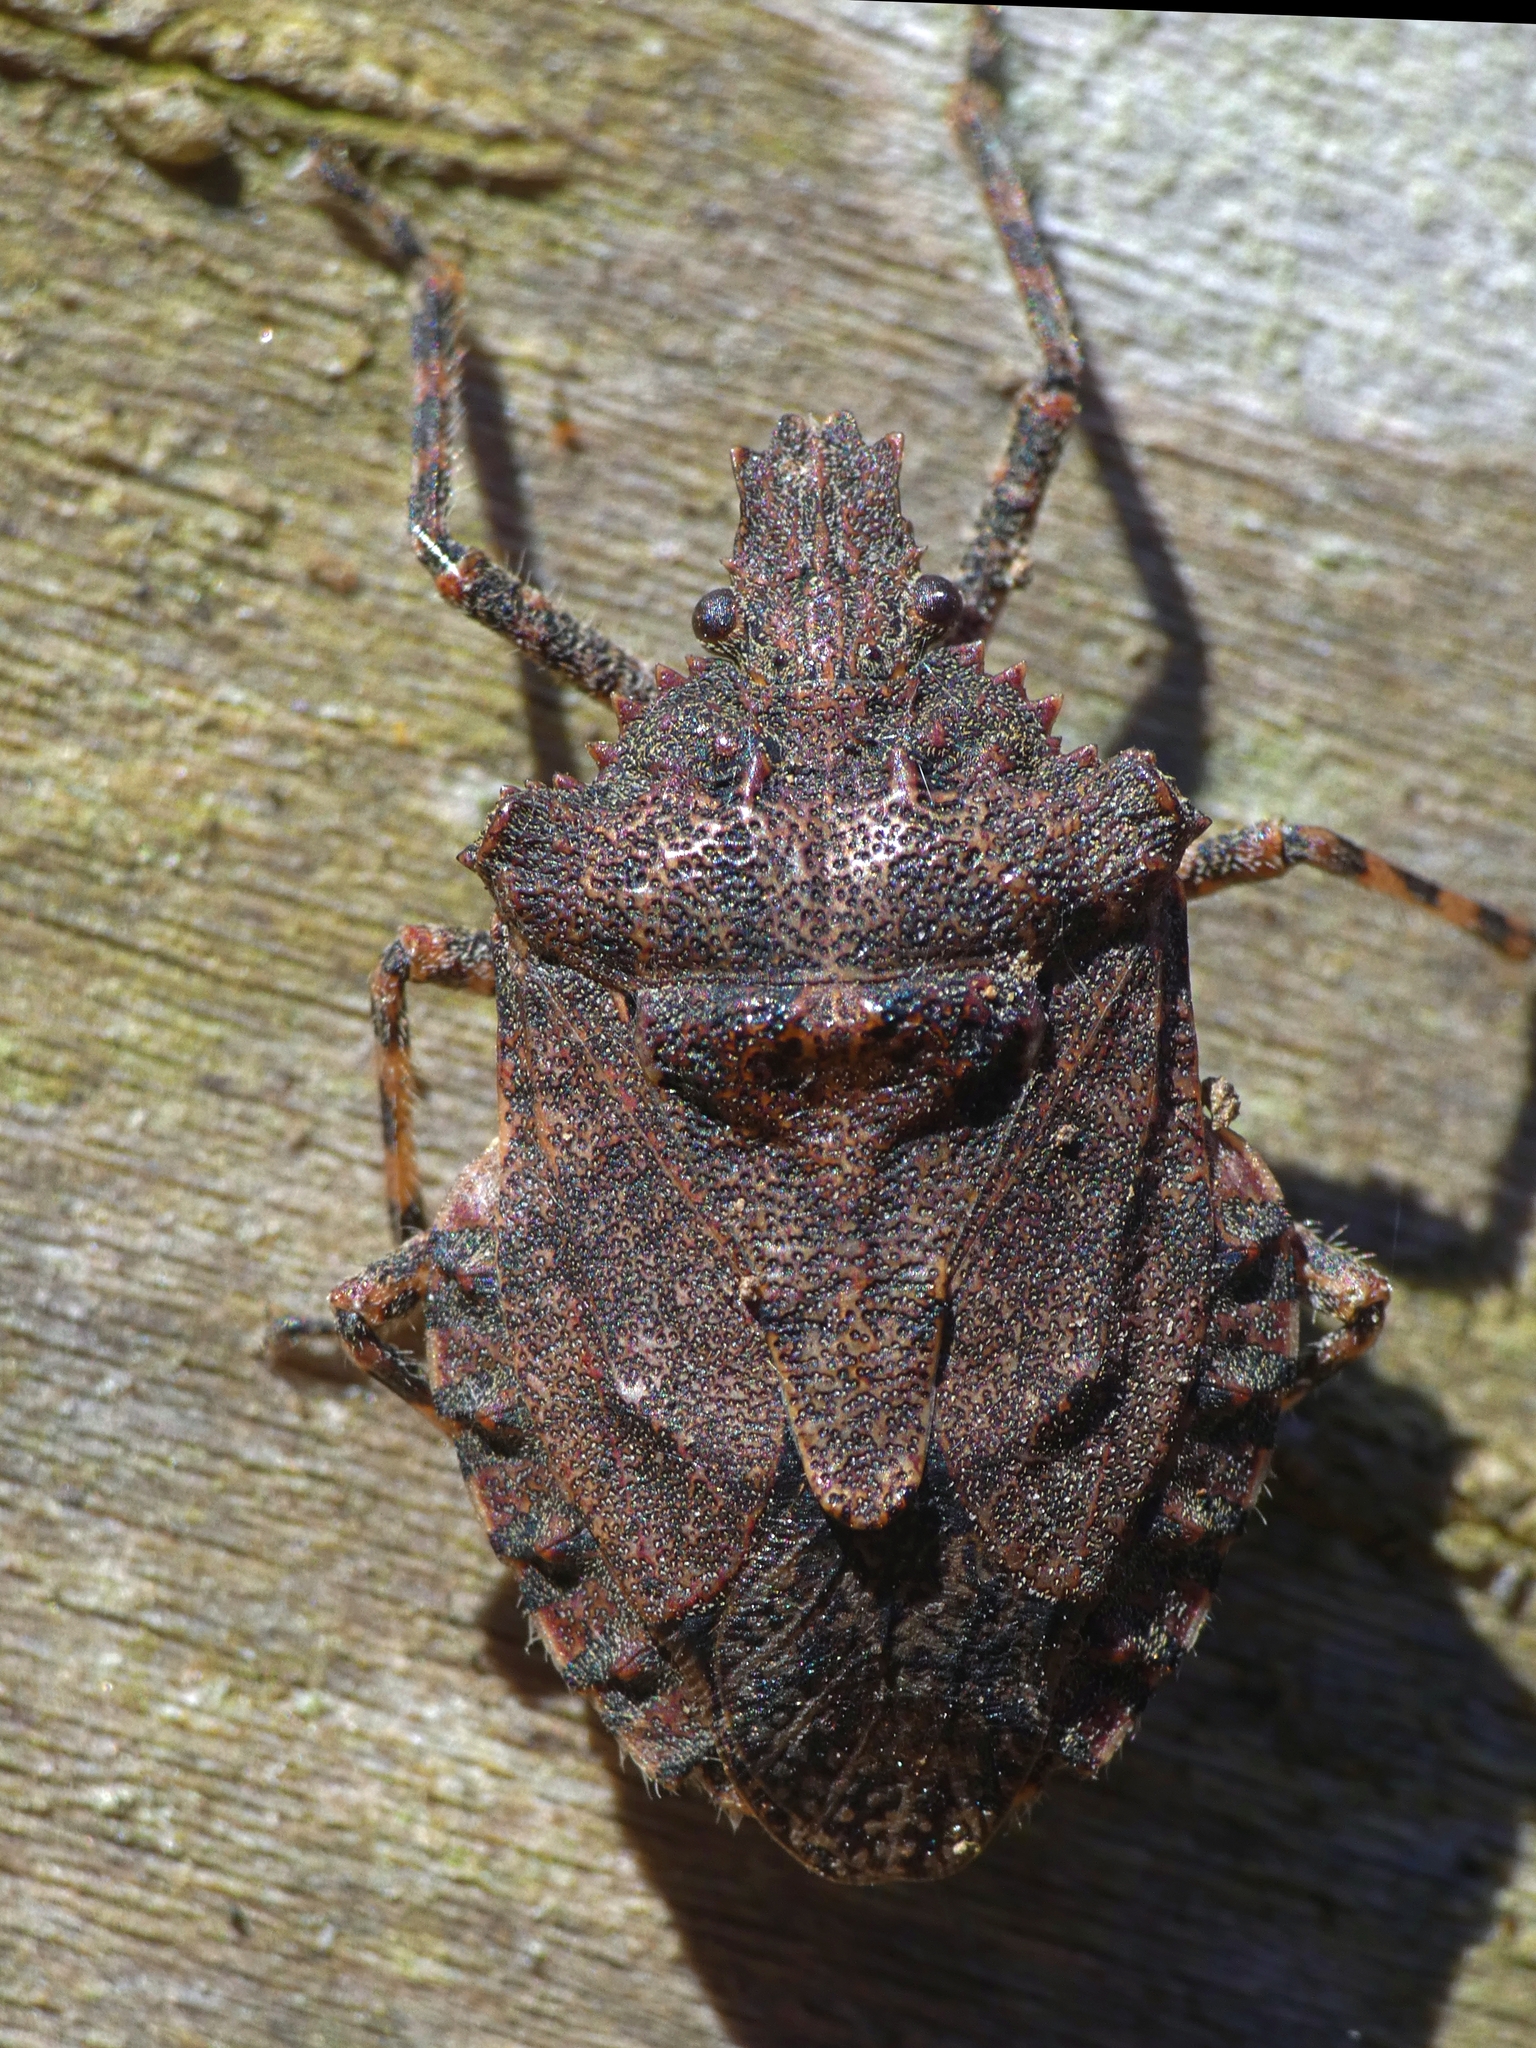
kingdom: Animalia
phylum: Arthropoda
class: Insecta
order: Hemiptera
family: Pentatomidae
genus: Brochymena
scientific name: Brochymena arborea
